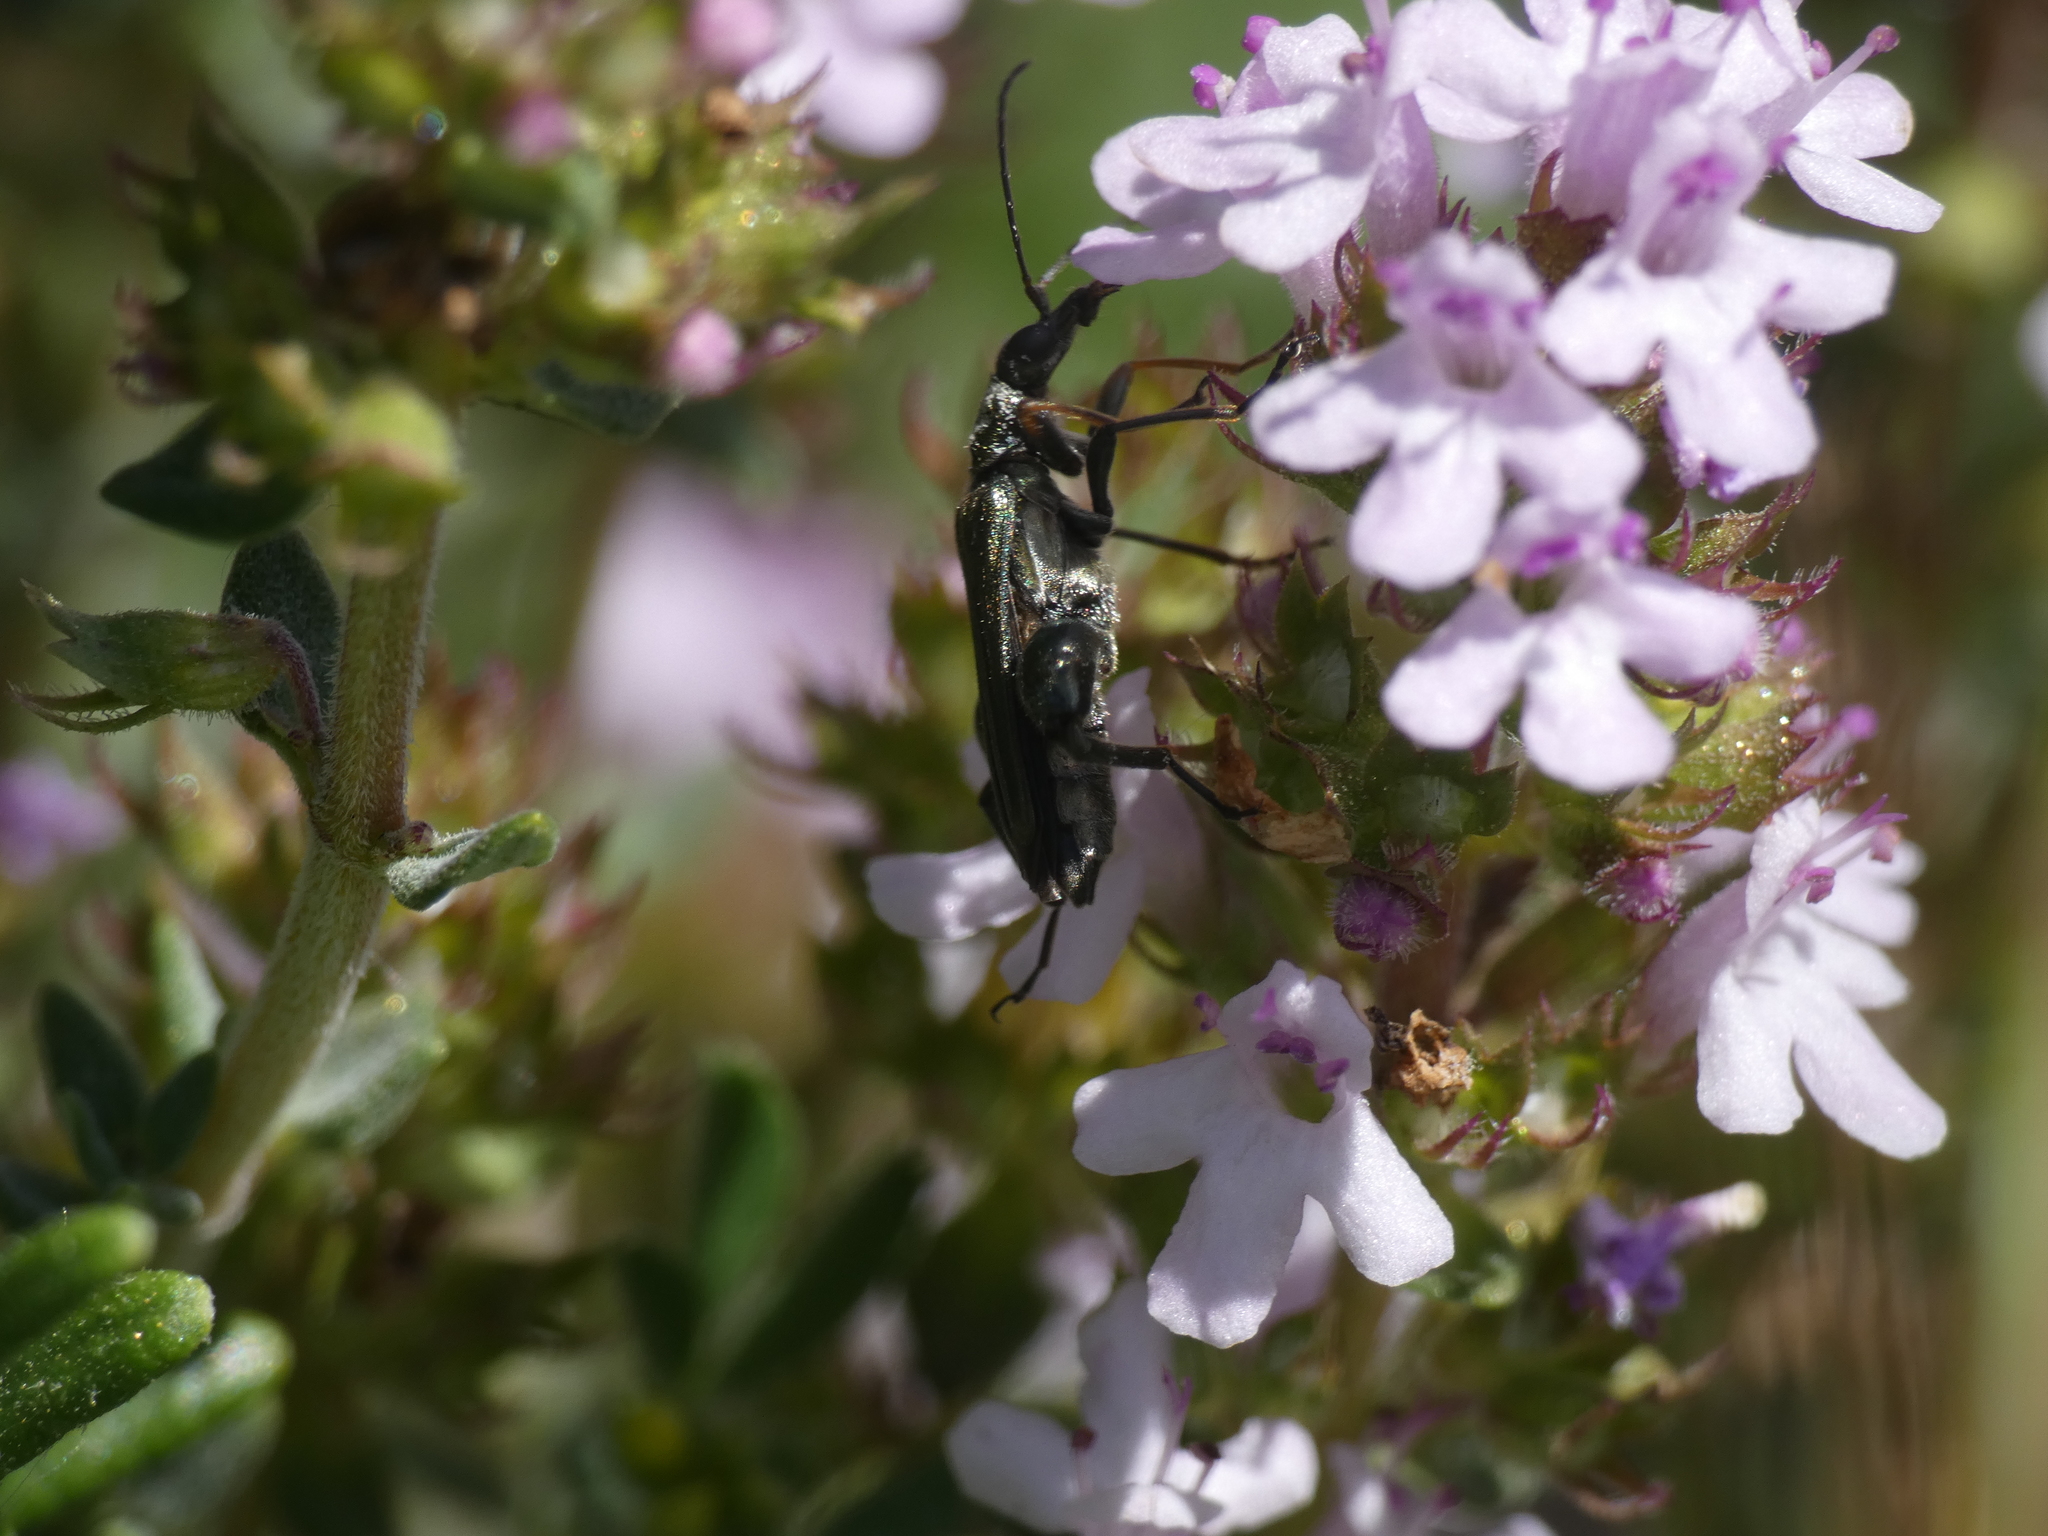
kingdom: Animalia
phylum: Arthropoda
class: Insecta
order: Coleoptera
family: Oedemeridae
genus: Oedemera
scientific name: Oedemera flavipes
